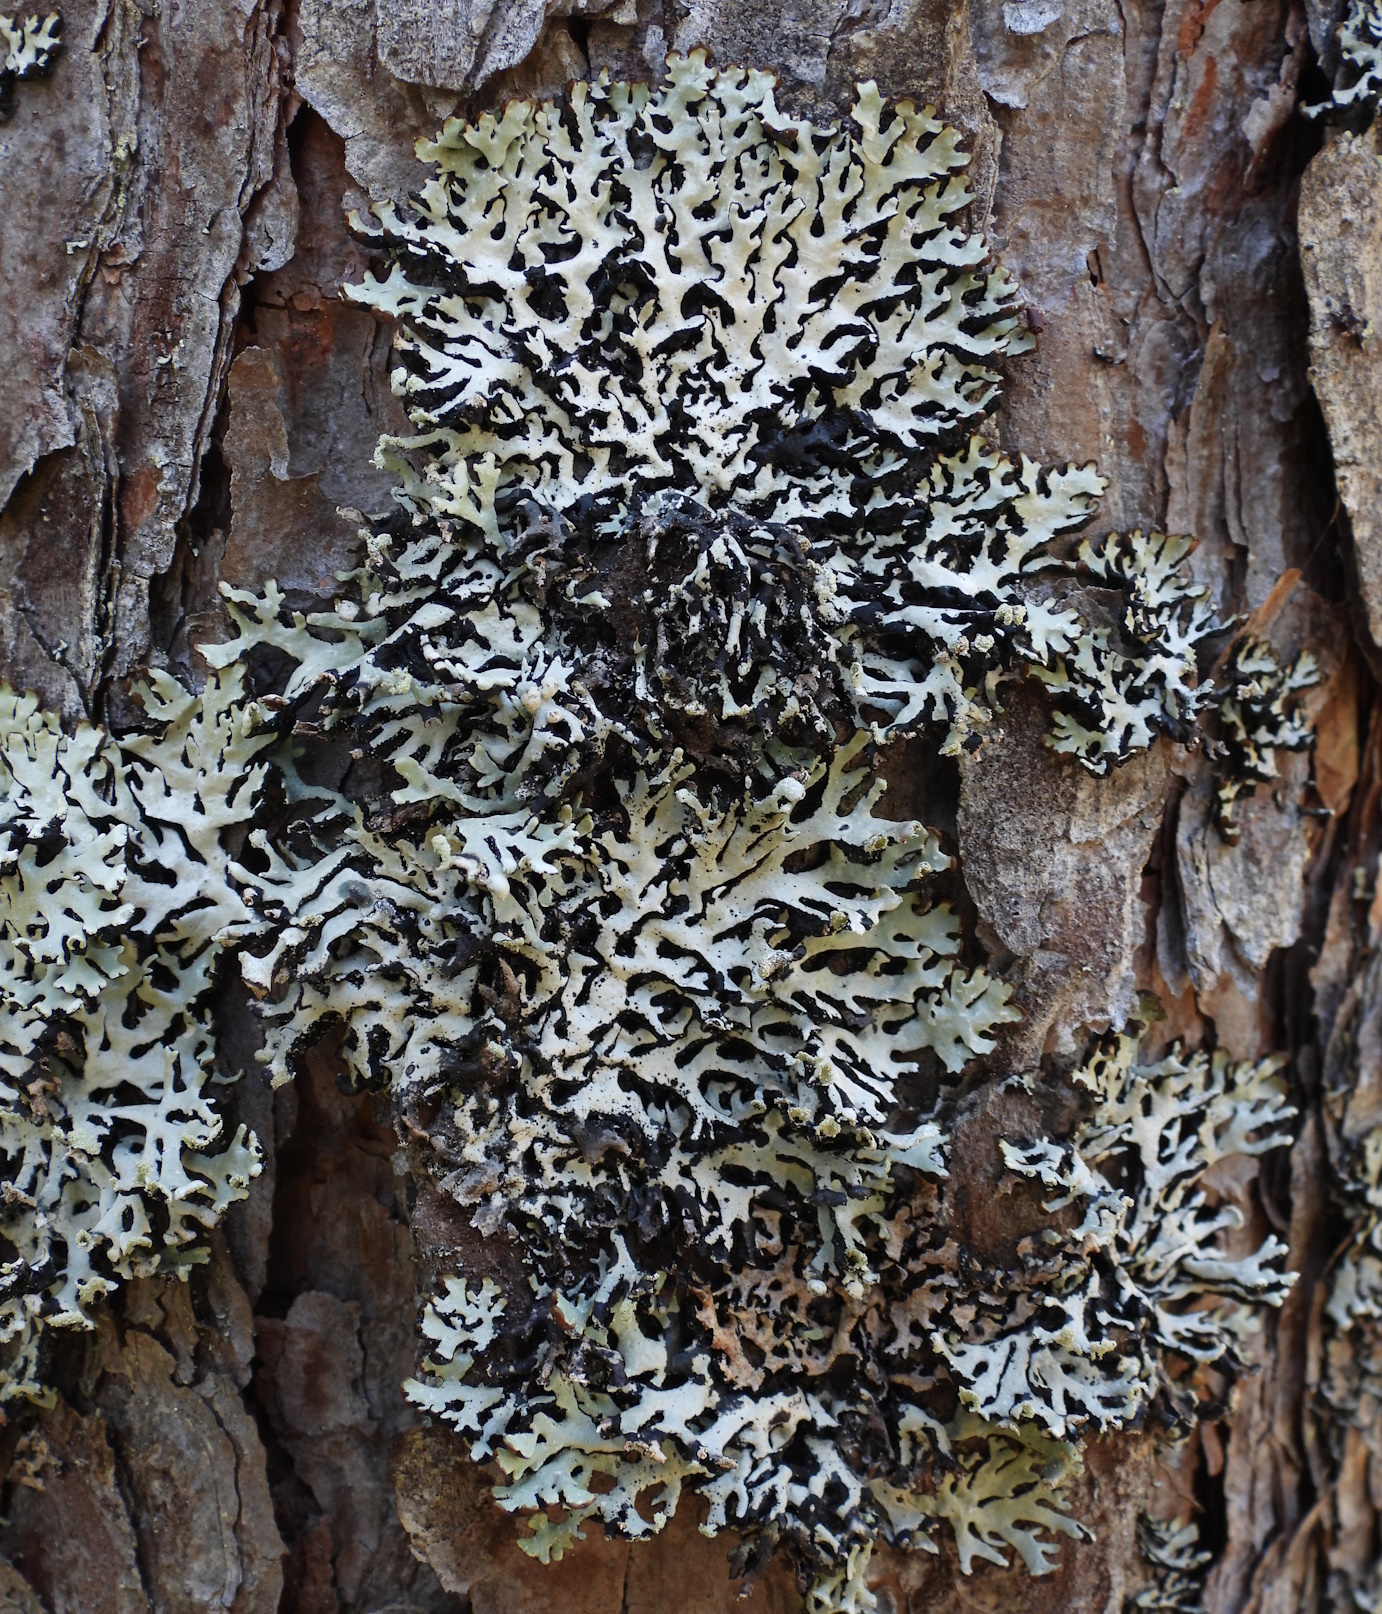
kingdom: Fungi
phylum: Ascomycota
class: Lecanoromycetes
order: Lecanorales
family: Parmeliaceae
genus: Hypogymnia
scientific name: Hypogymnia physodes
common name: Dark crottle
